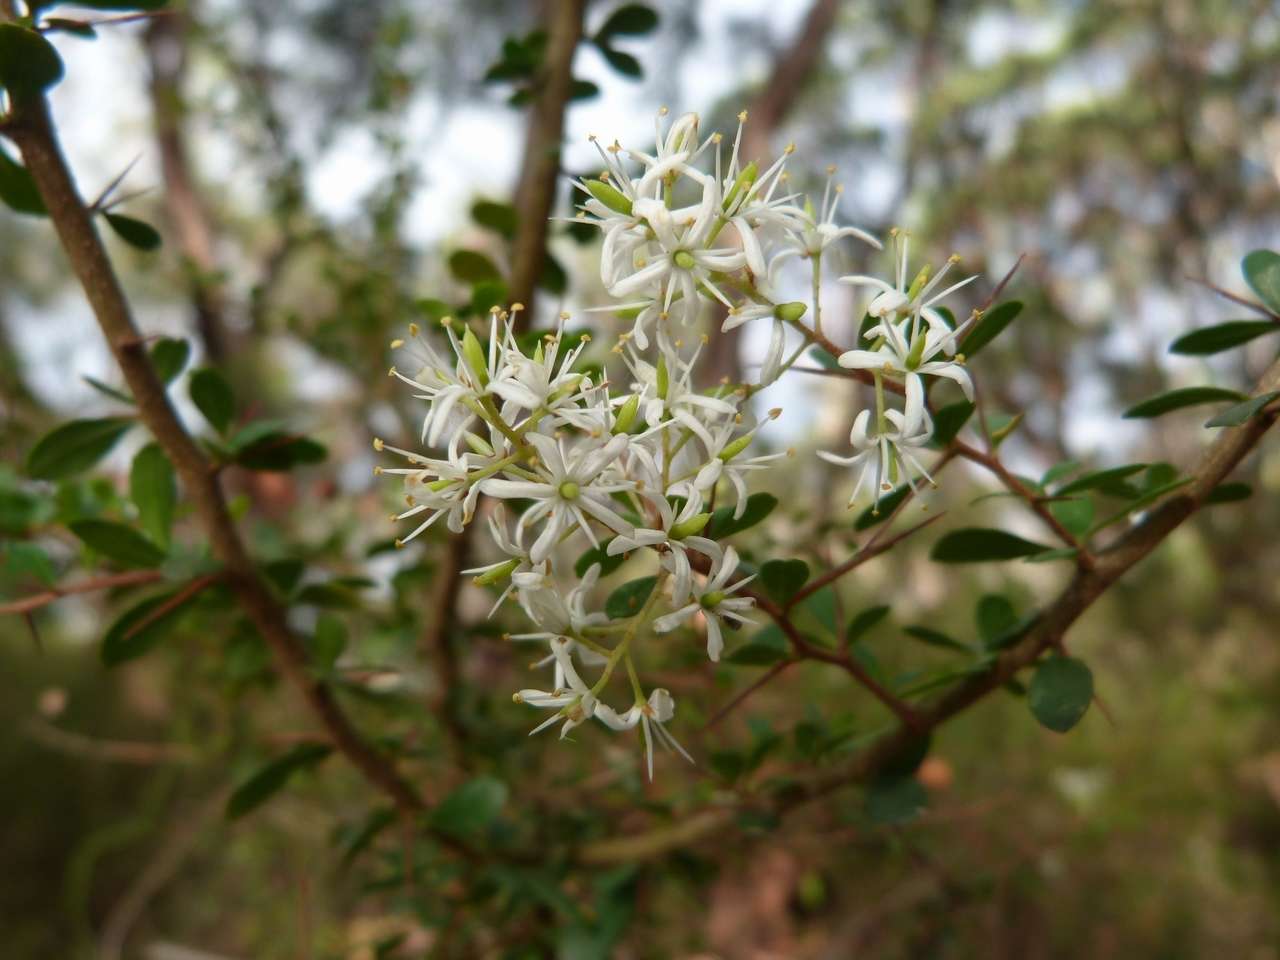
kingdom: Plantae
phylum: Tracheophyta
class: Magnoliopsida
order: Apiales
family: Pittosporaceae
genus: Bursaria
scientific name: Bursaria spinosa
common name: Australian blackthorn
